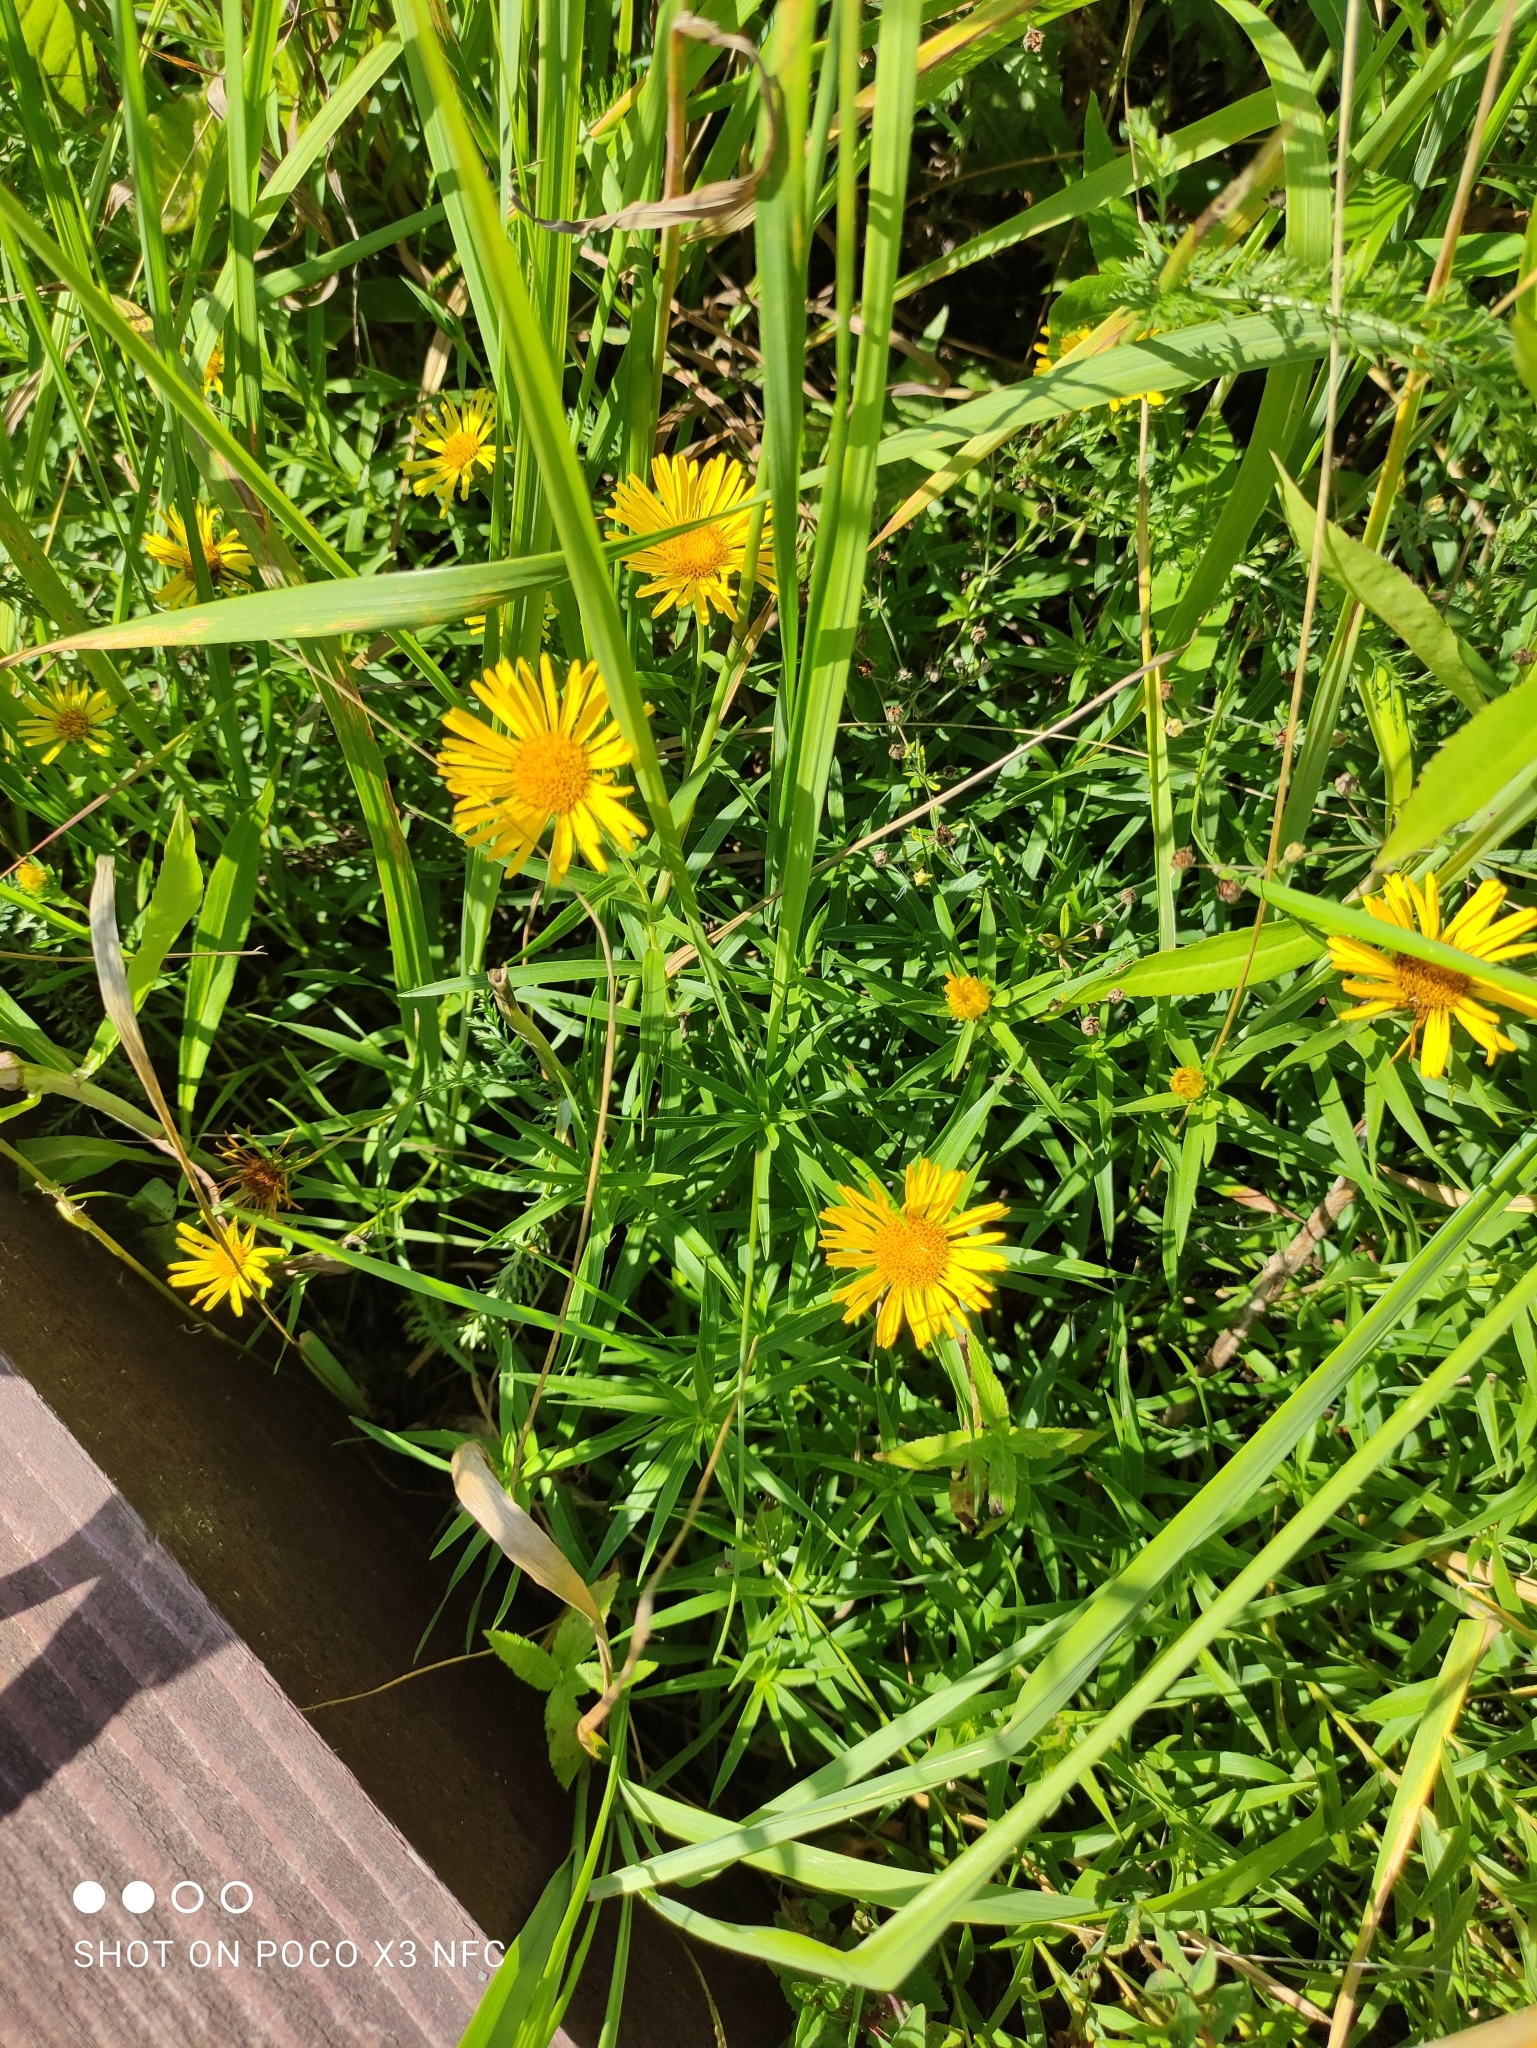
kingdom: Plantae
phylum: Tracheophyta
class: Magnoliopsida
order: Asterales
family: Asteraceae
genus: Pentanema
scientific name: Pentanema salicinum
